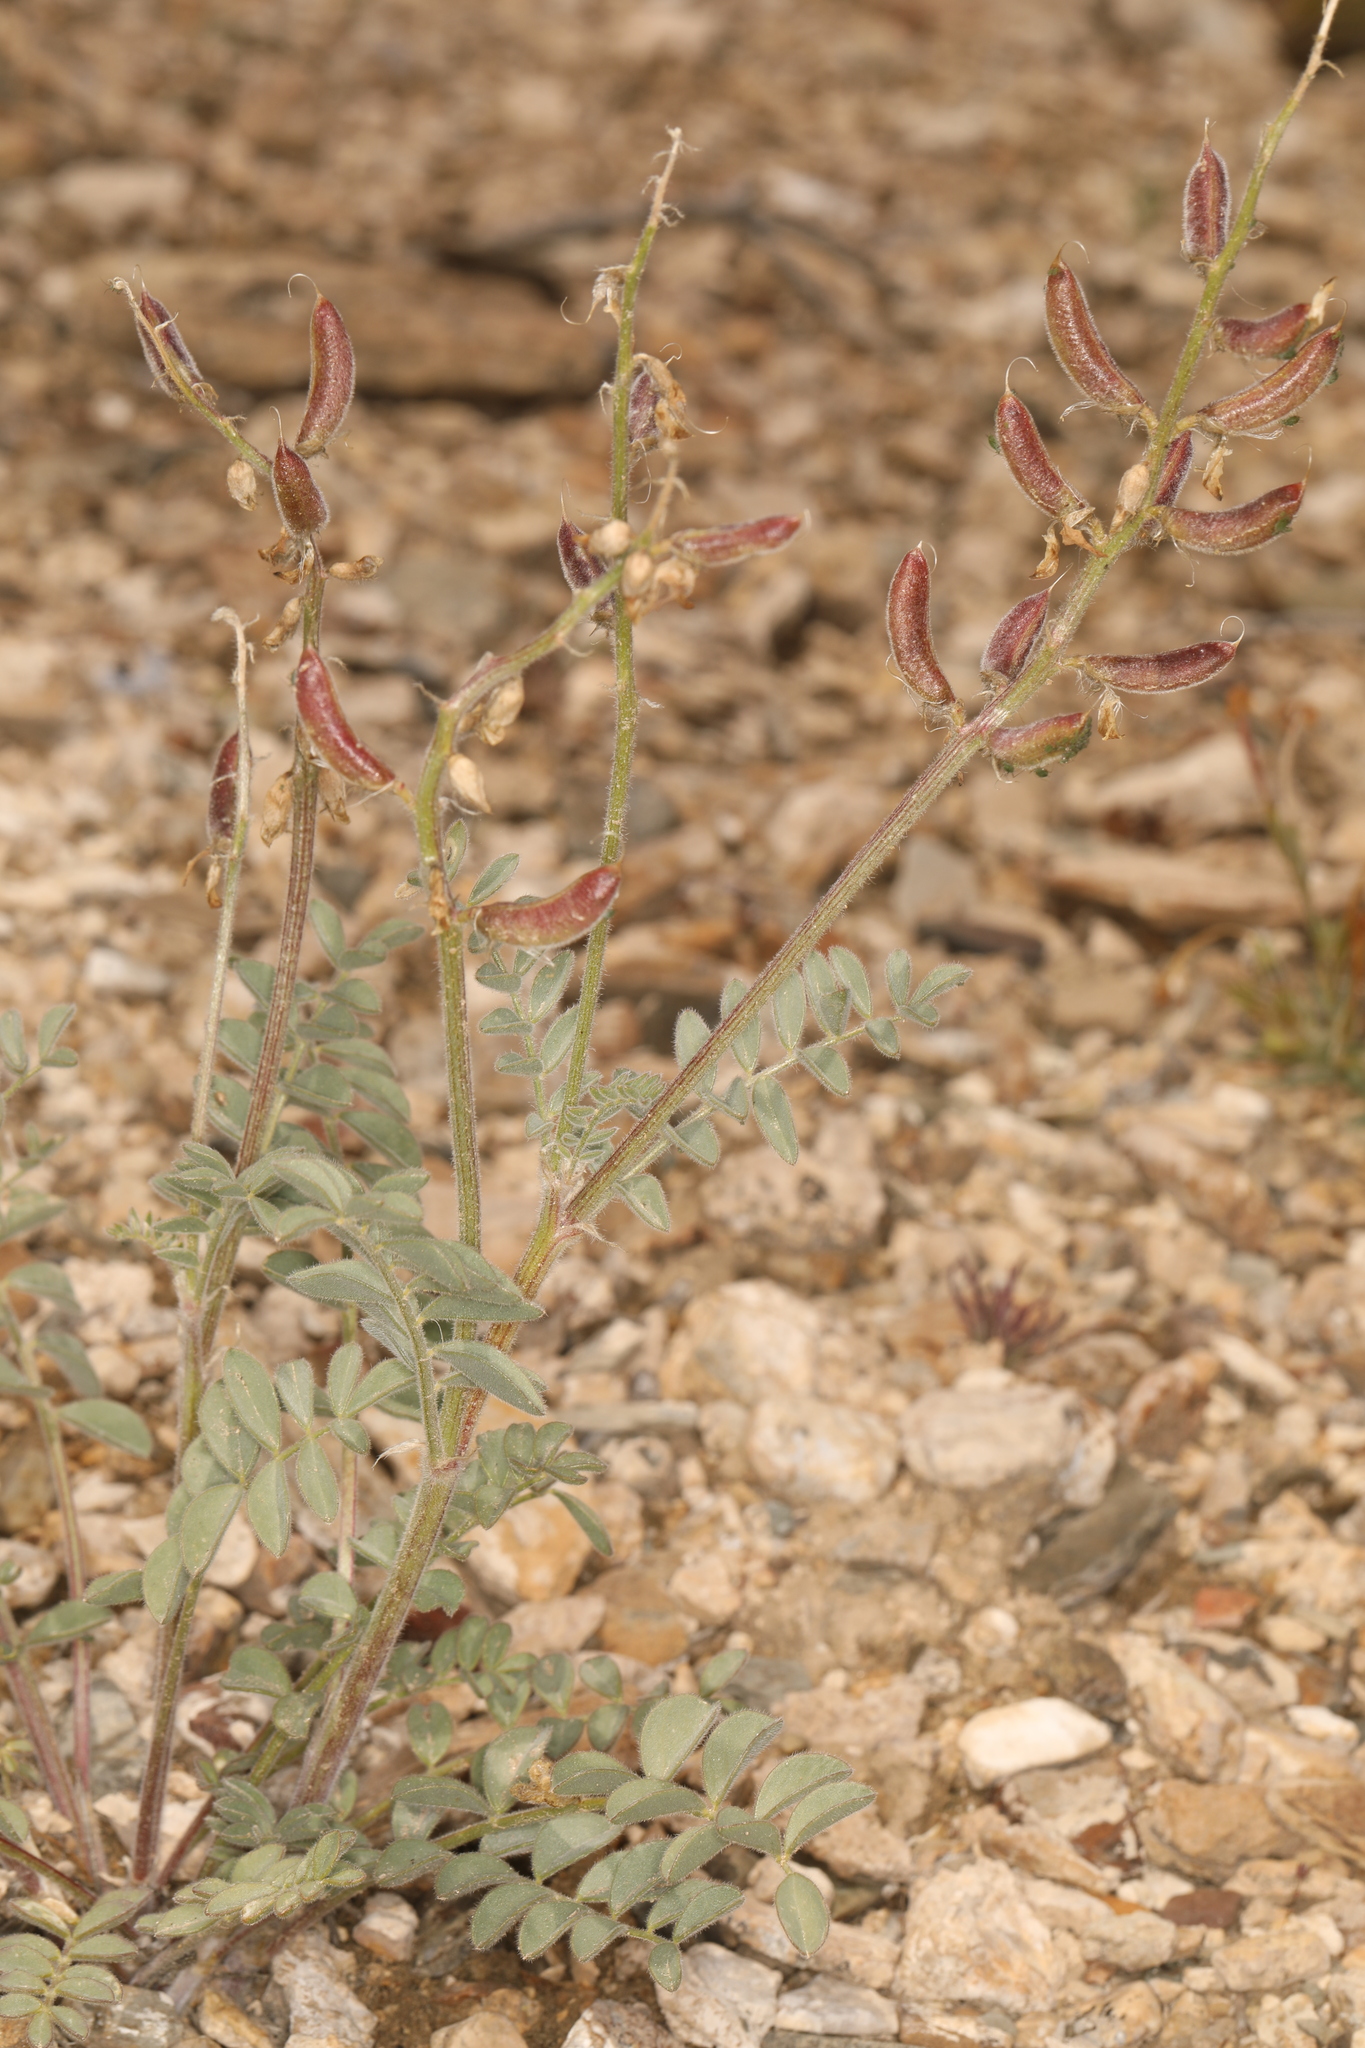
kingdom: Plantae
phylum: Tracheophyta
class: Magnoliopsida
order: Fabales
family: Fabaceae
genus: Astragalus
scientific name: Astragalus minthorniae
